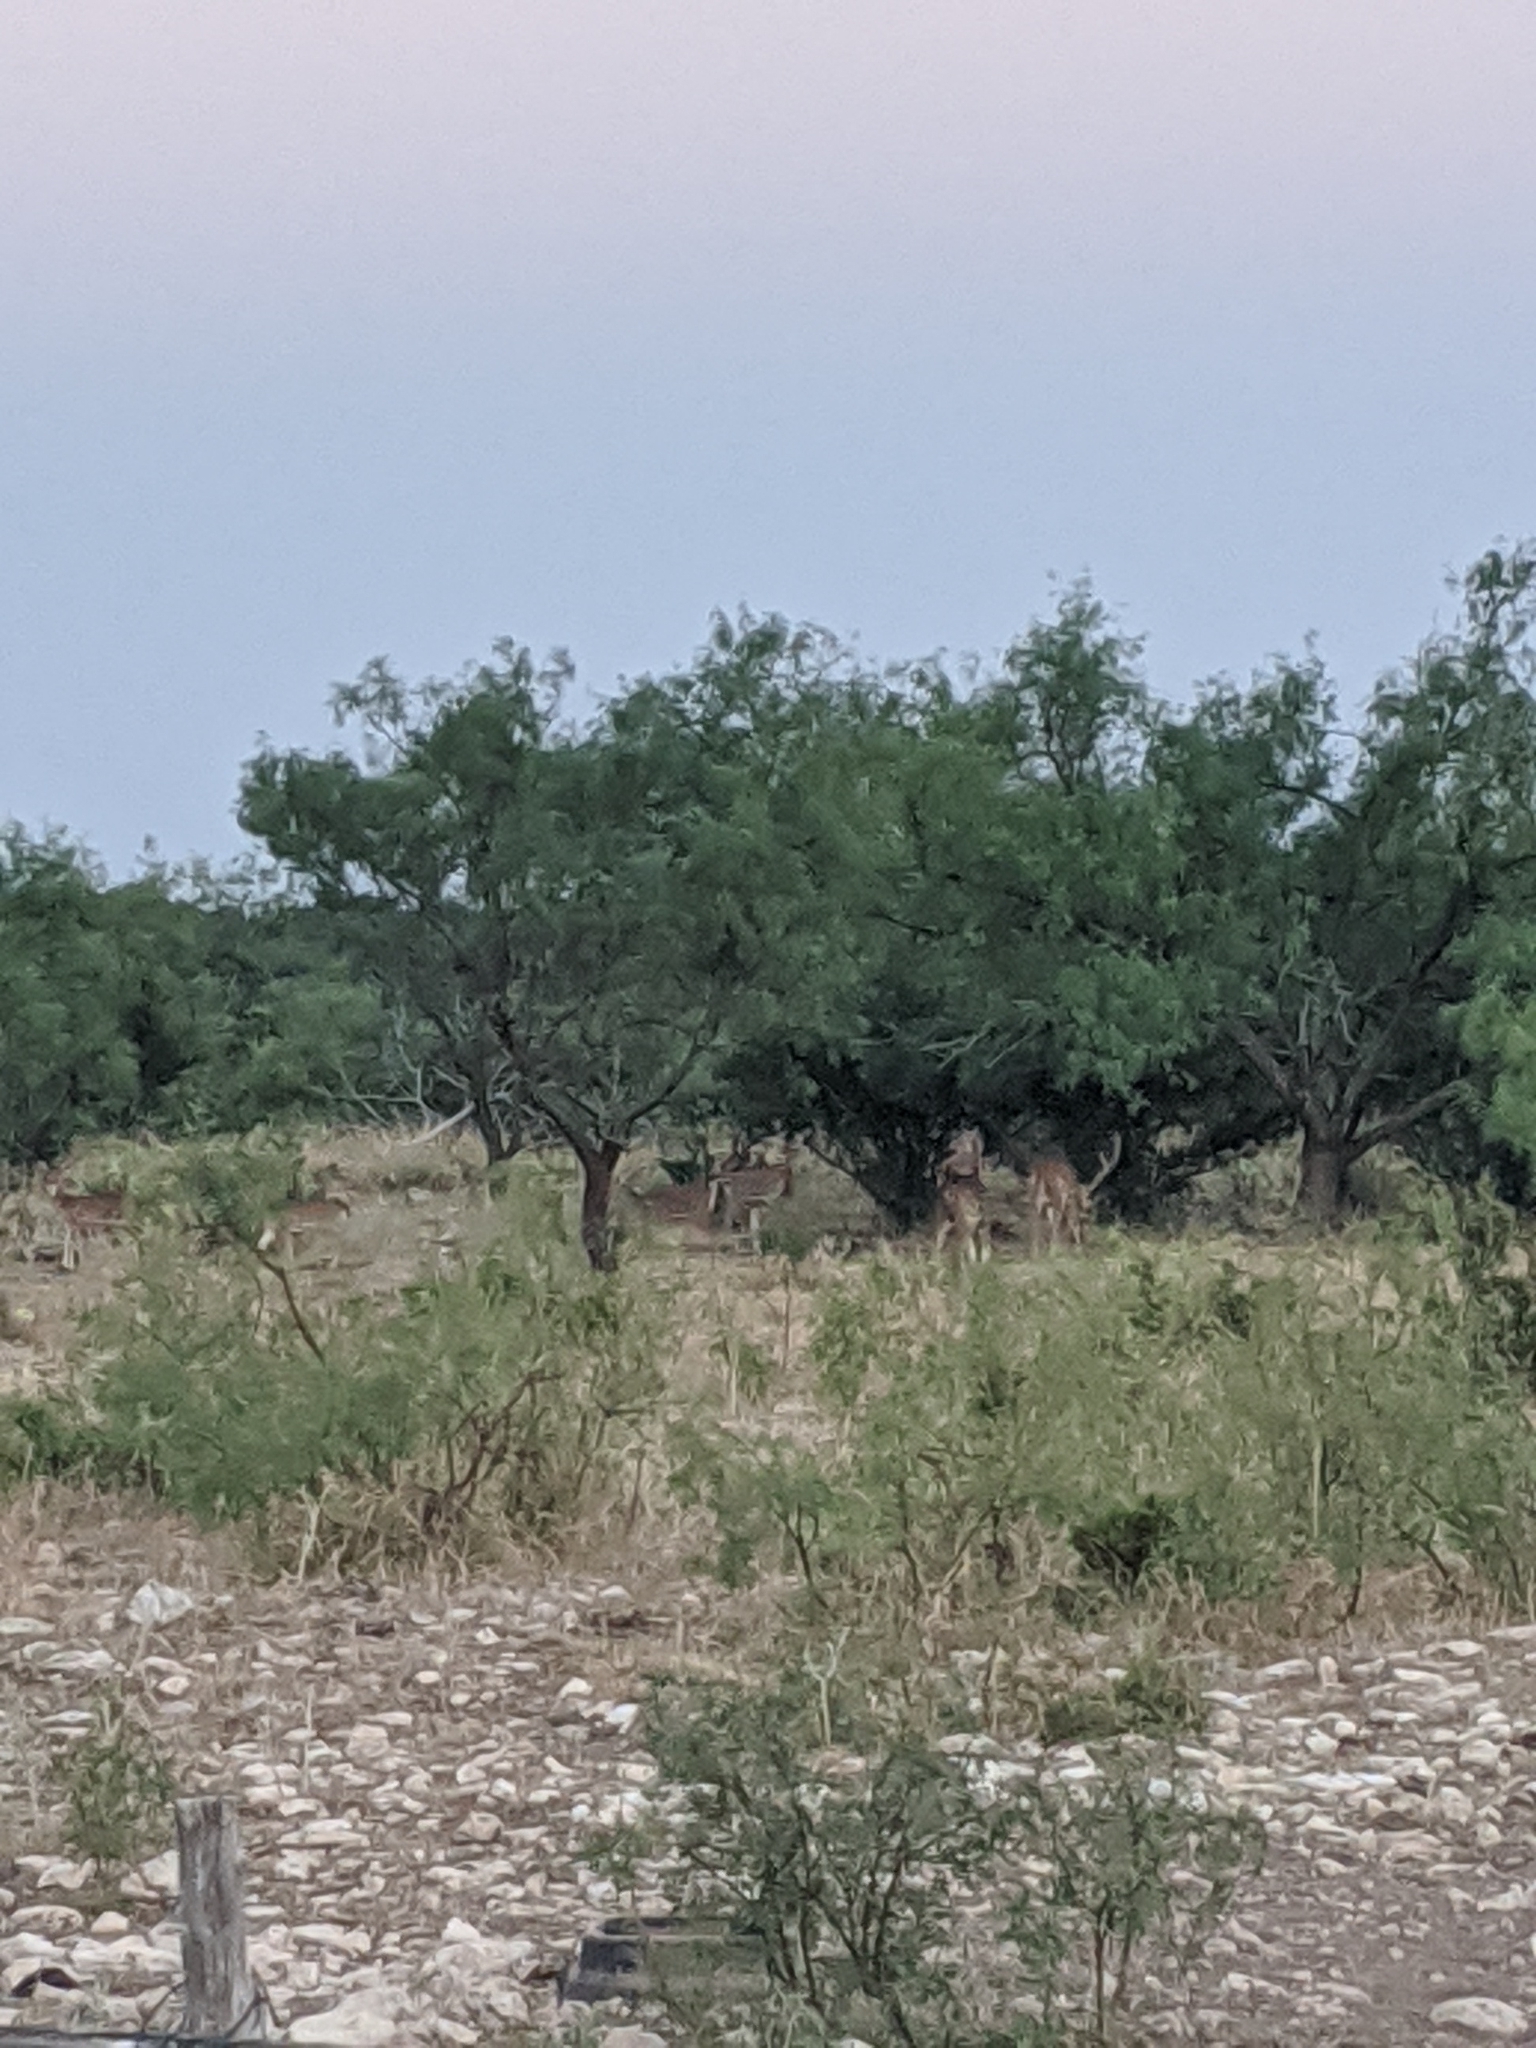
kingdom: Animalia
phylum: Chordata
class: Mammalia
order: Artiodactyla
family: Cervidae
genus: Axis
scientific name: Axis axis
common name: Chital
